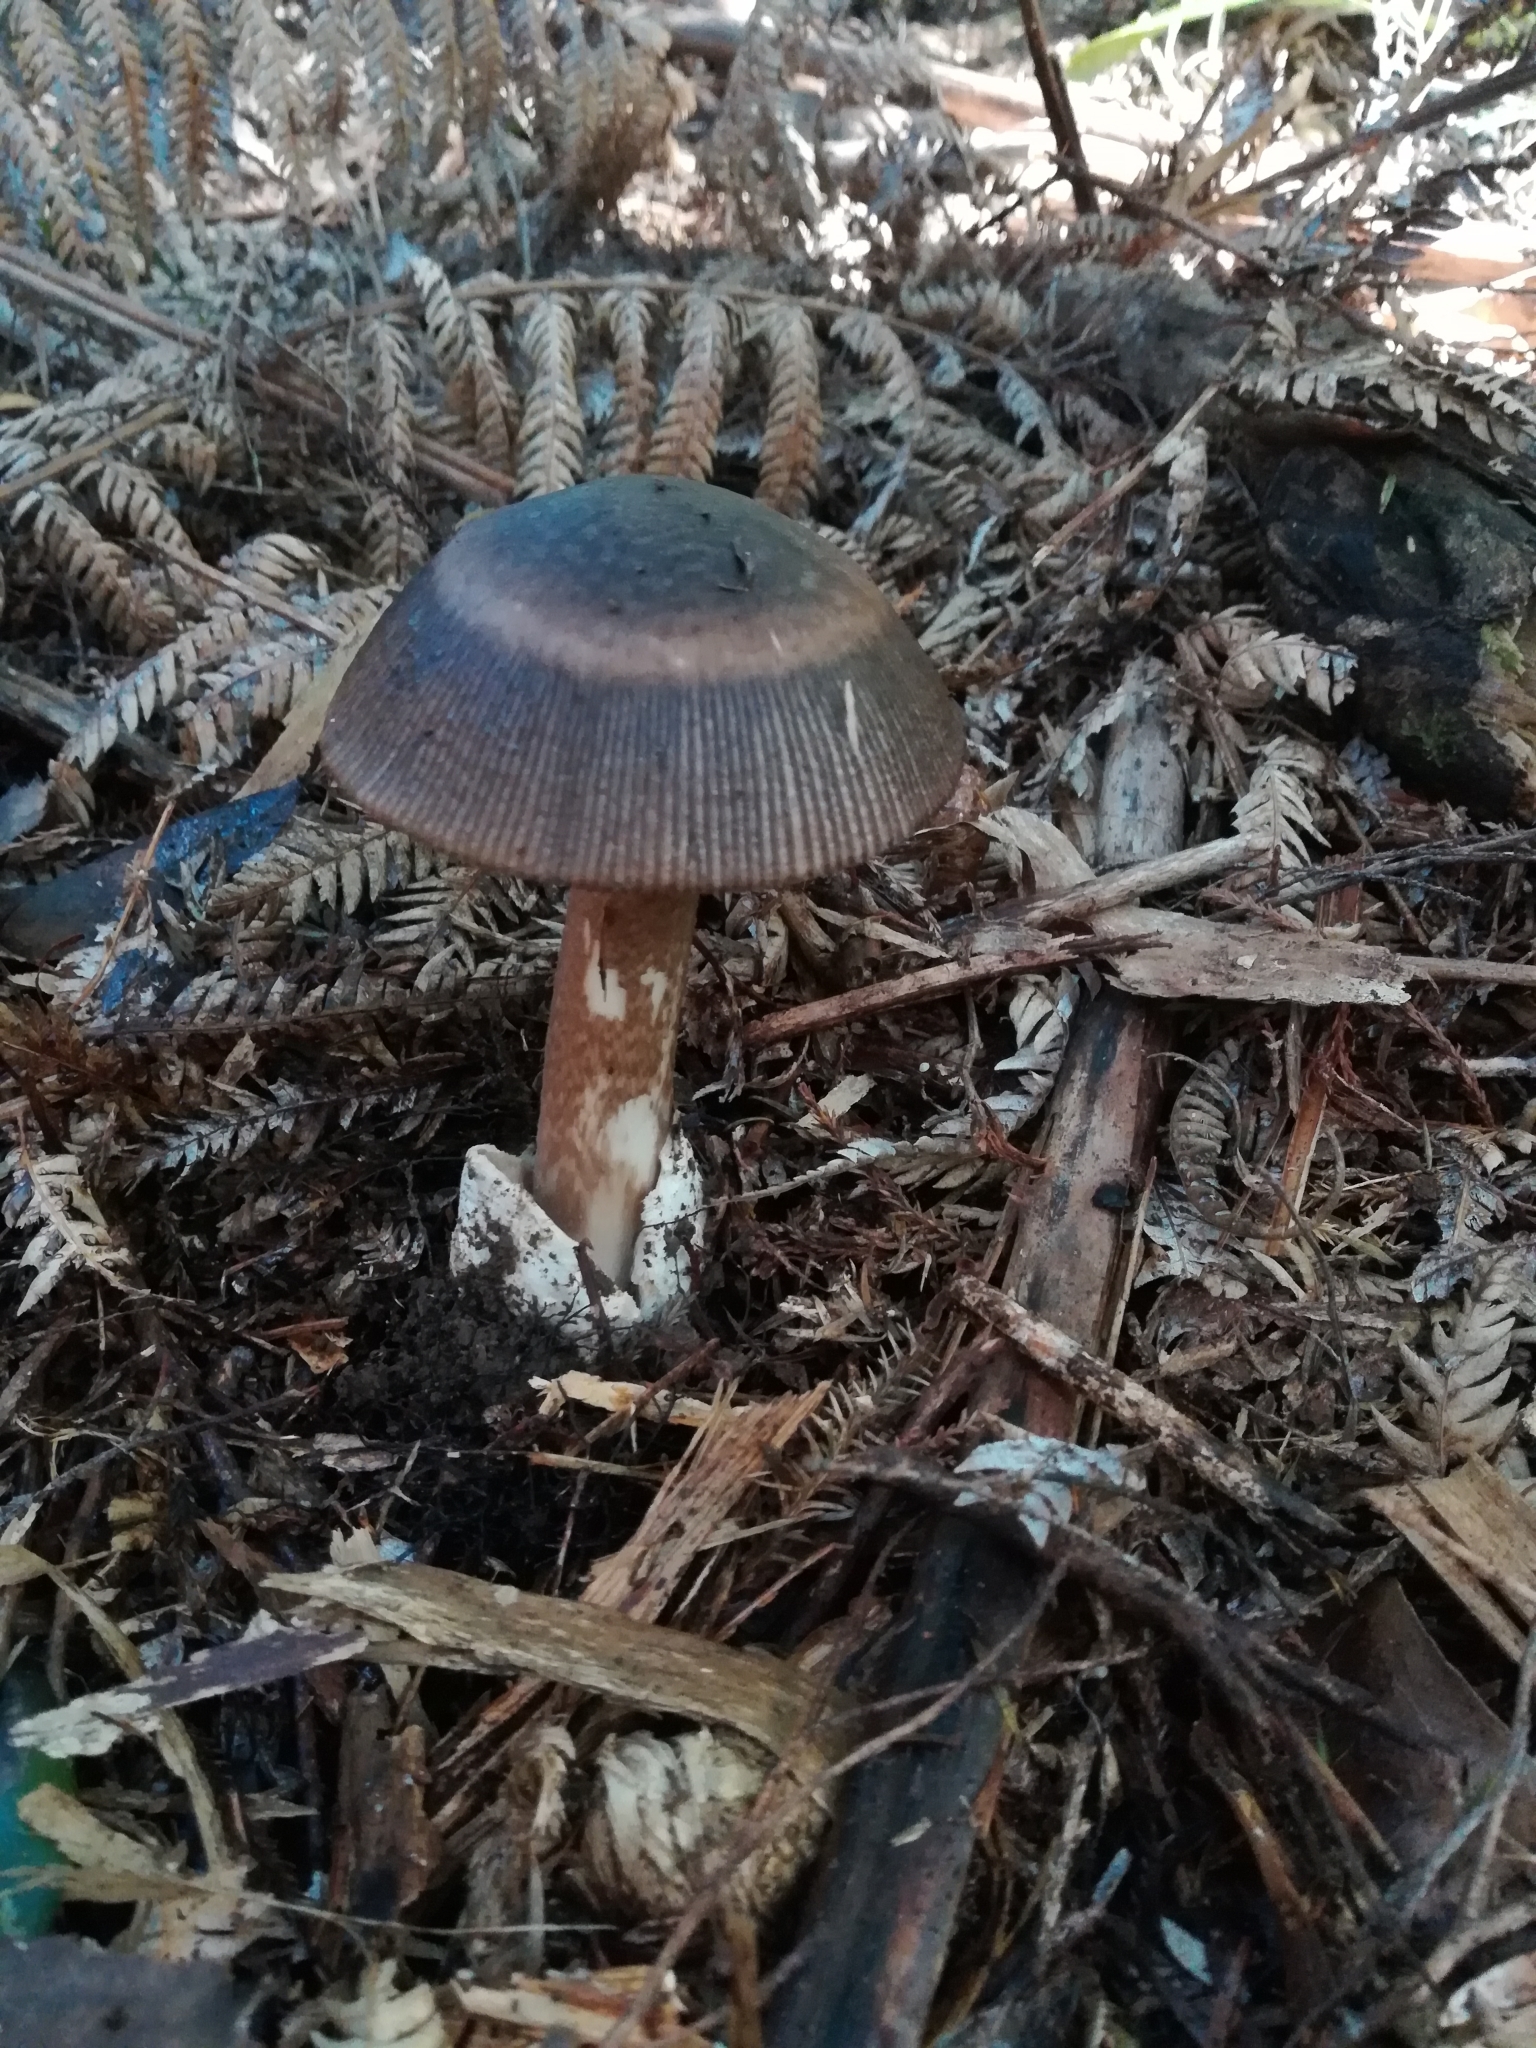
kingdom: Fungi
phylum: Basidiomycota
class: Agaricomycetes
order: Agaricales
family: Amanitaceae
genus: Amanita
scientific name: Amanita pekeoides
